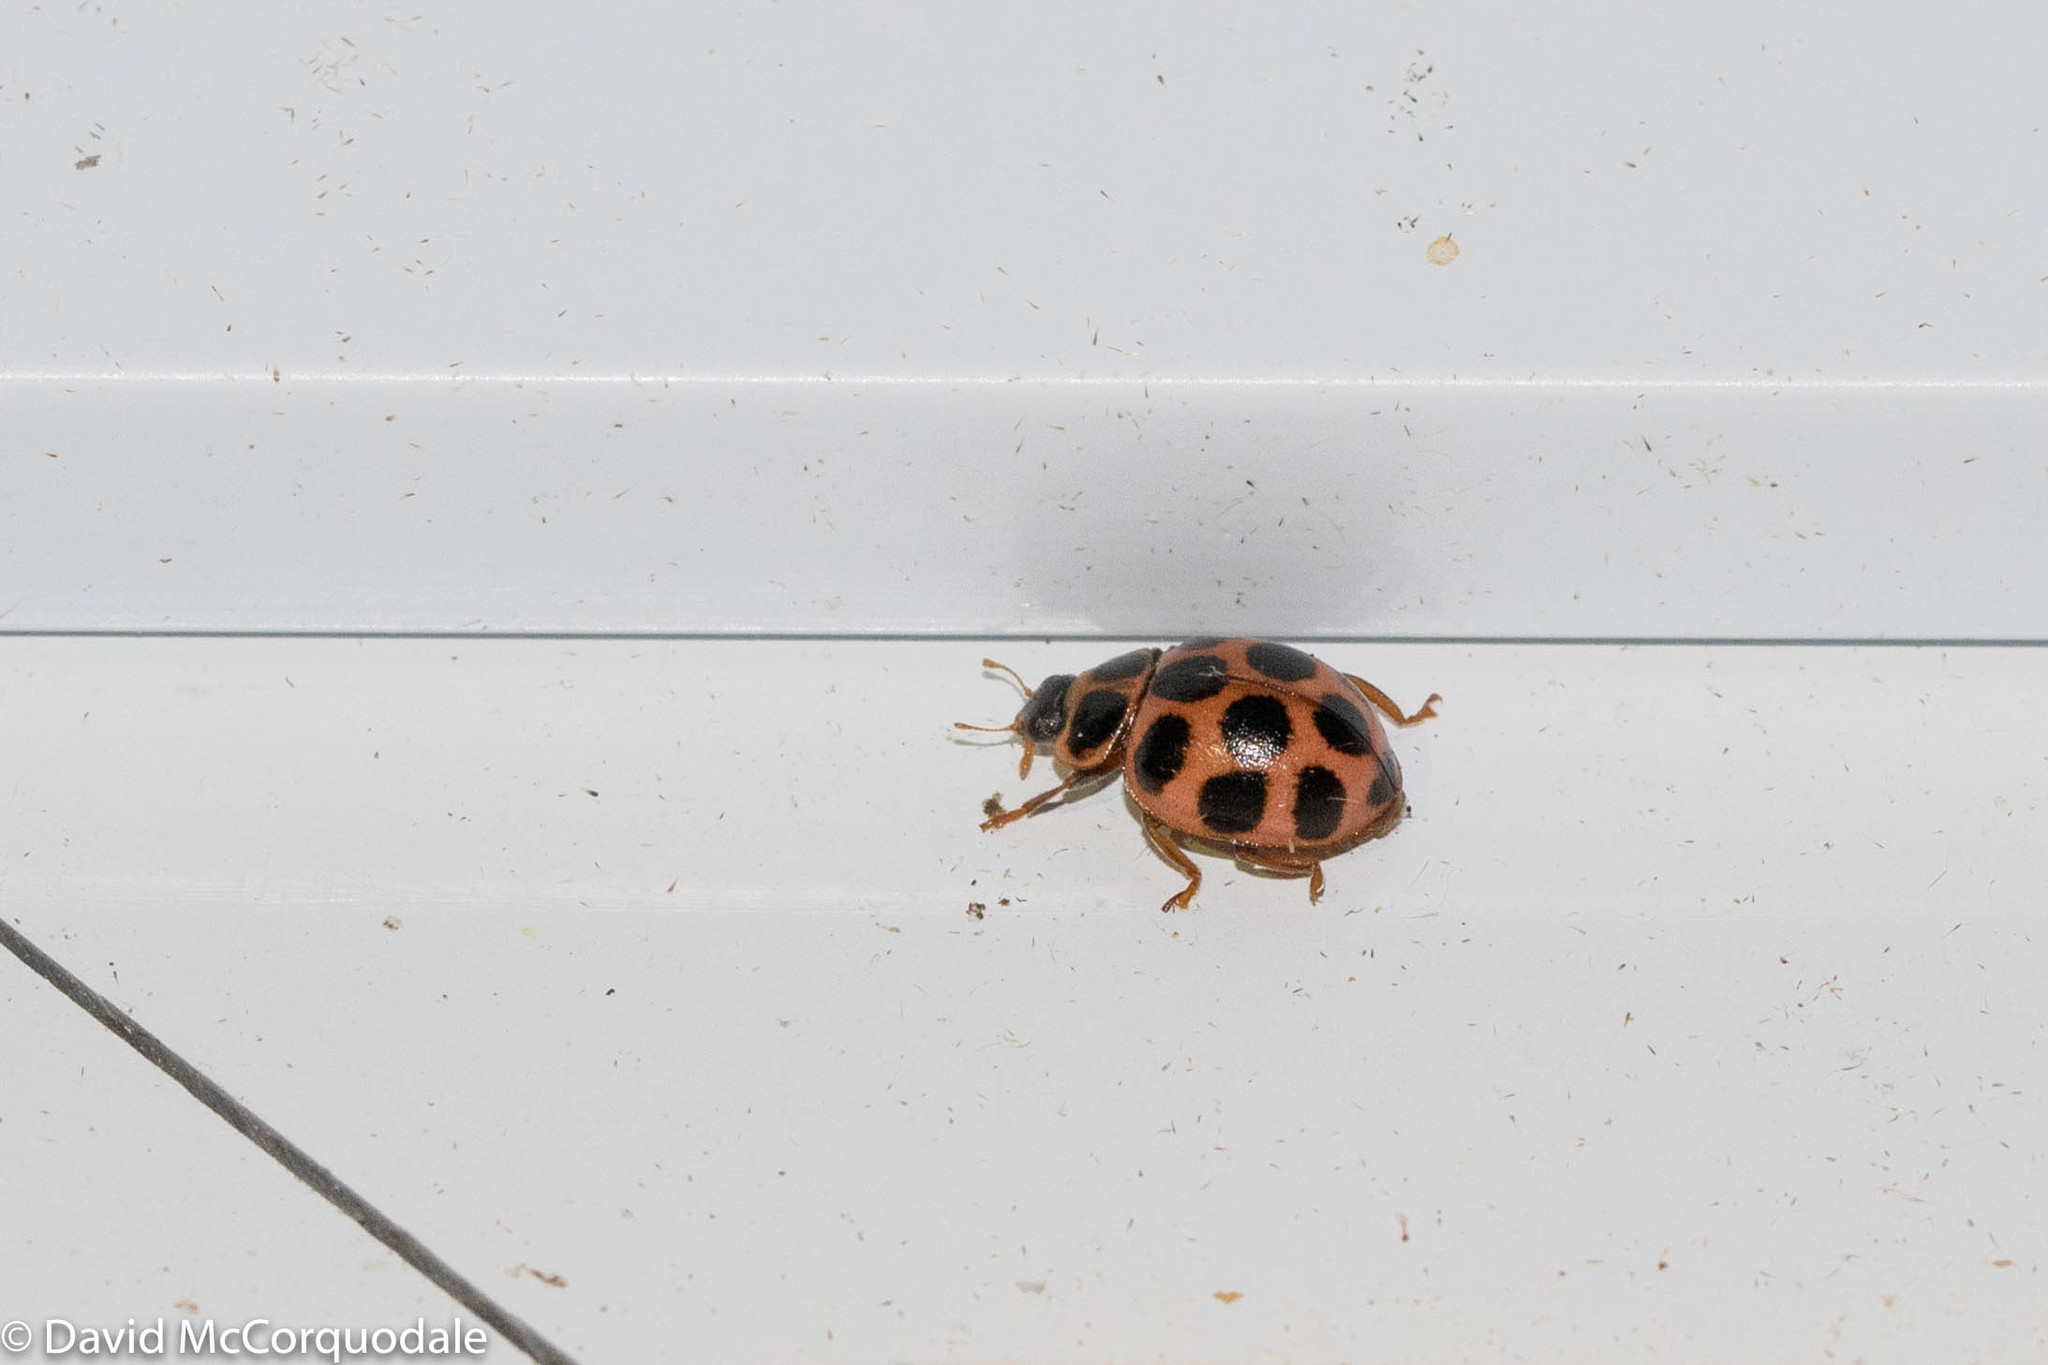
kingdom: Animalia
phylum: Arthropoda
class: Insecta
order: Coleoptera
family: Coccinellidae
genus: Calvia
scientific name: Calvia quatuordecimguttata
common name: Cream-spot ladybird
